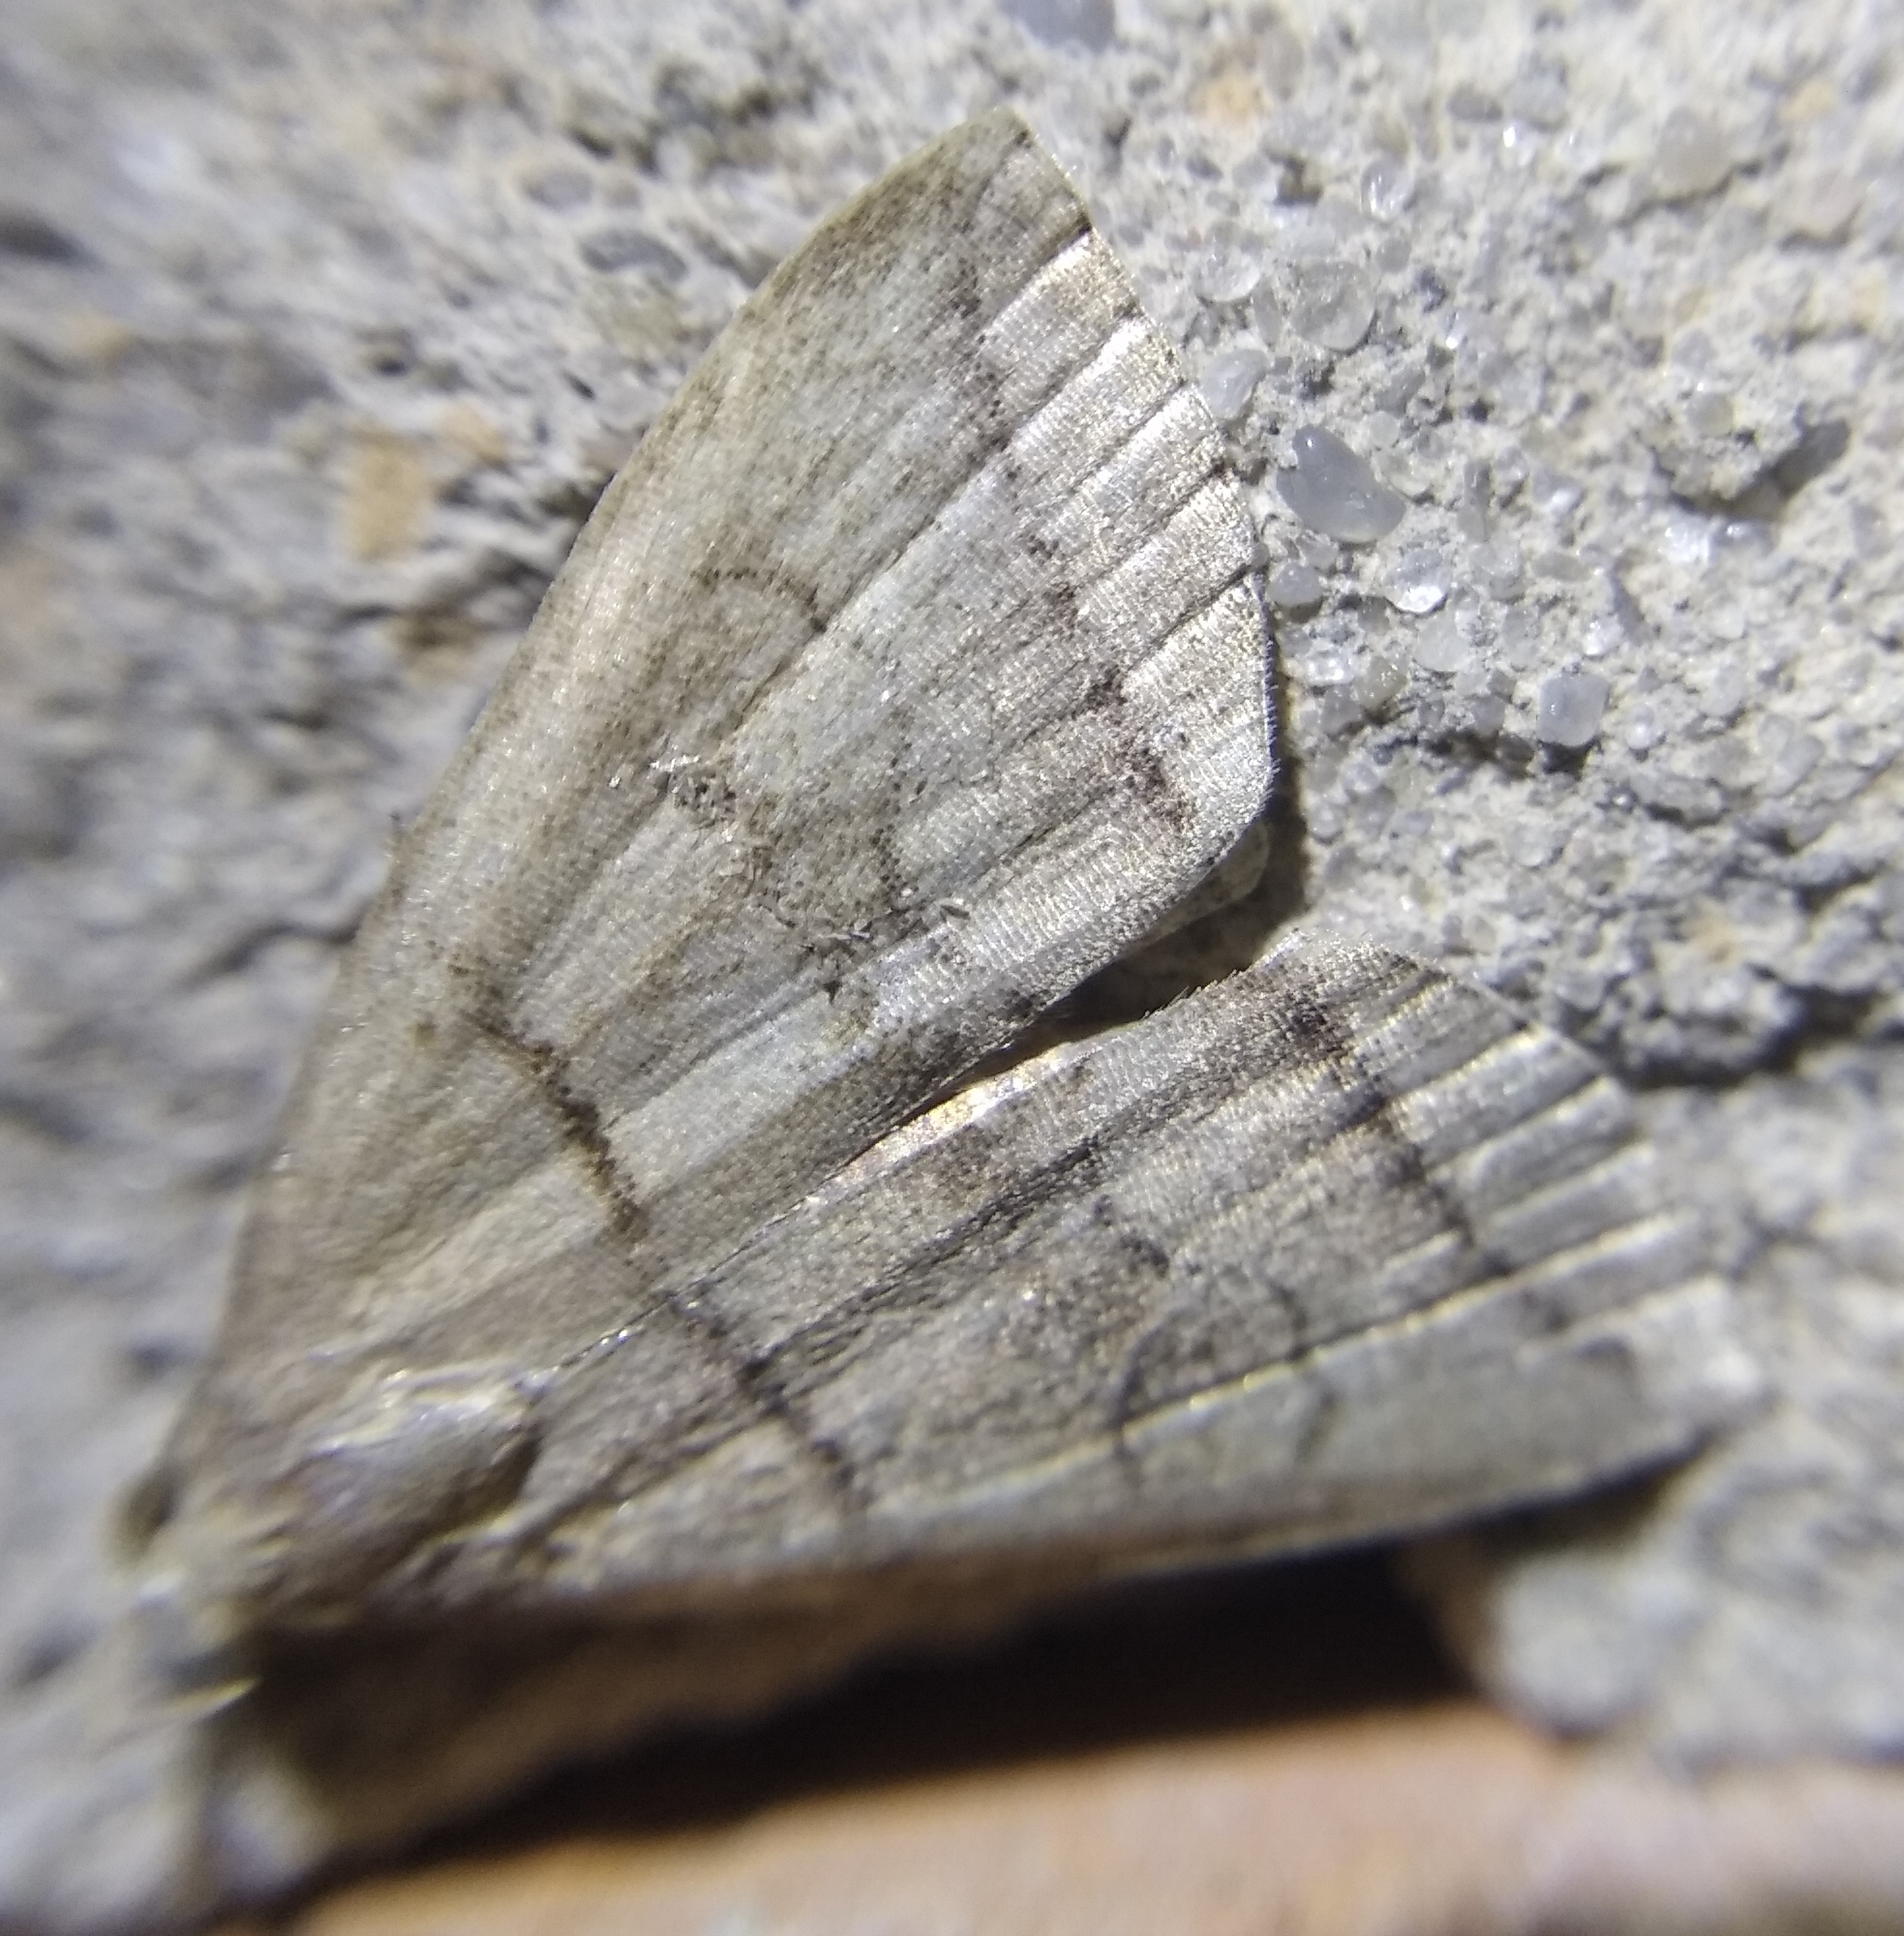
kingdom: Animalia
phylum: Arthropoda
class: Insecta
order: Lepidoptera
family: Erebidae
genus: Herminia
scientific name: Herminia grisealis
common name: Small fan-foot
